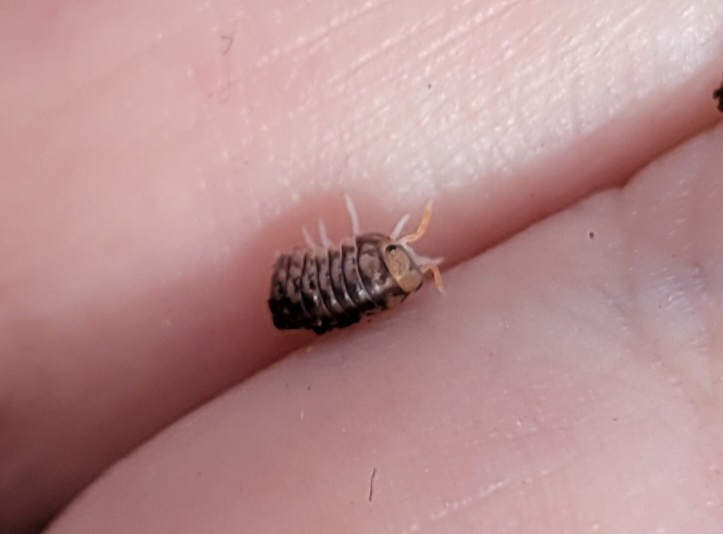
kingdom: Animalia
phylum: Arthropoda
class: Malacostraca
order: Isopoda
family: Armadillidae
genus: Venezillo
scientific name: Venezillo parvus
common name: Pillbug
